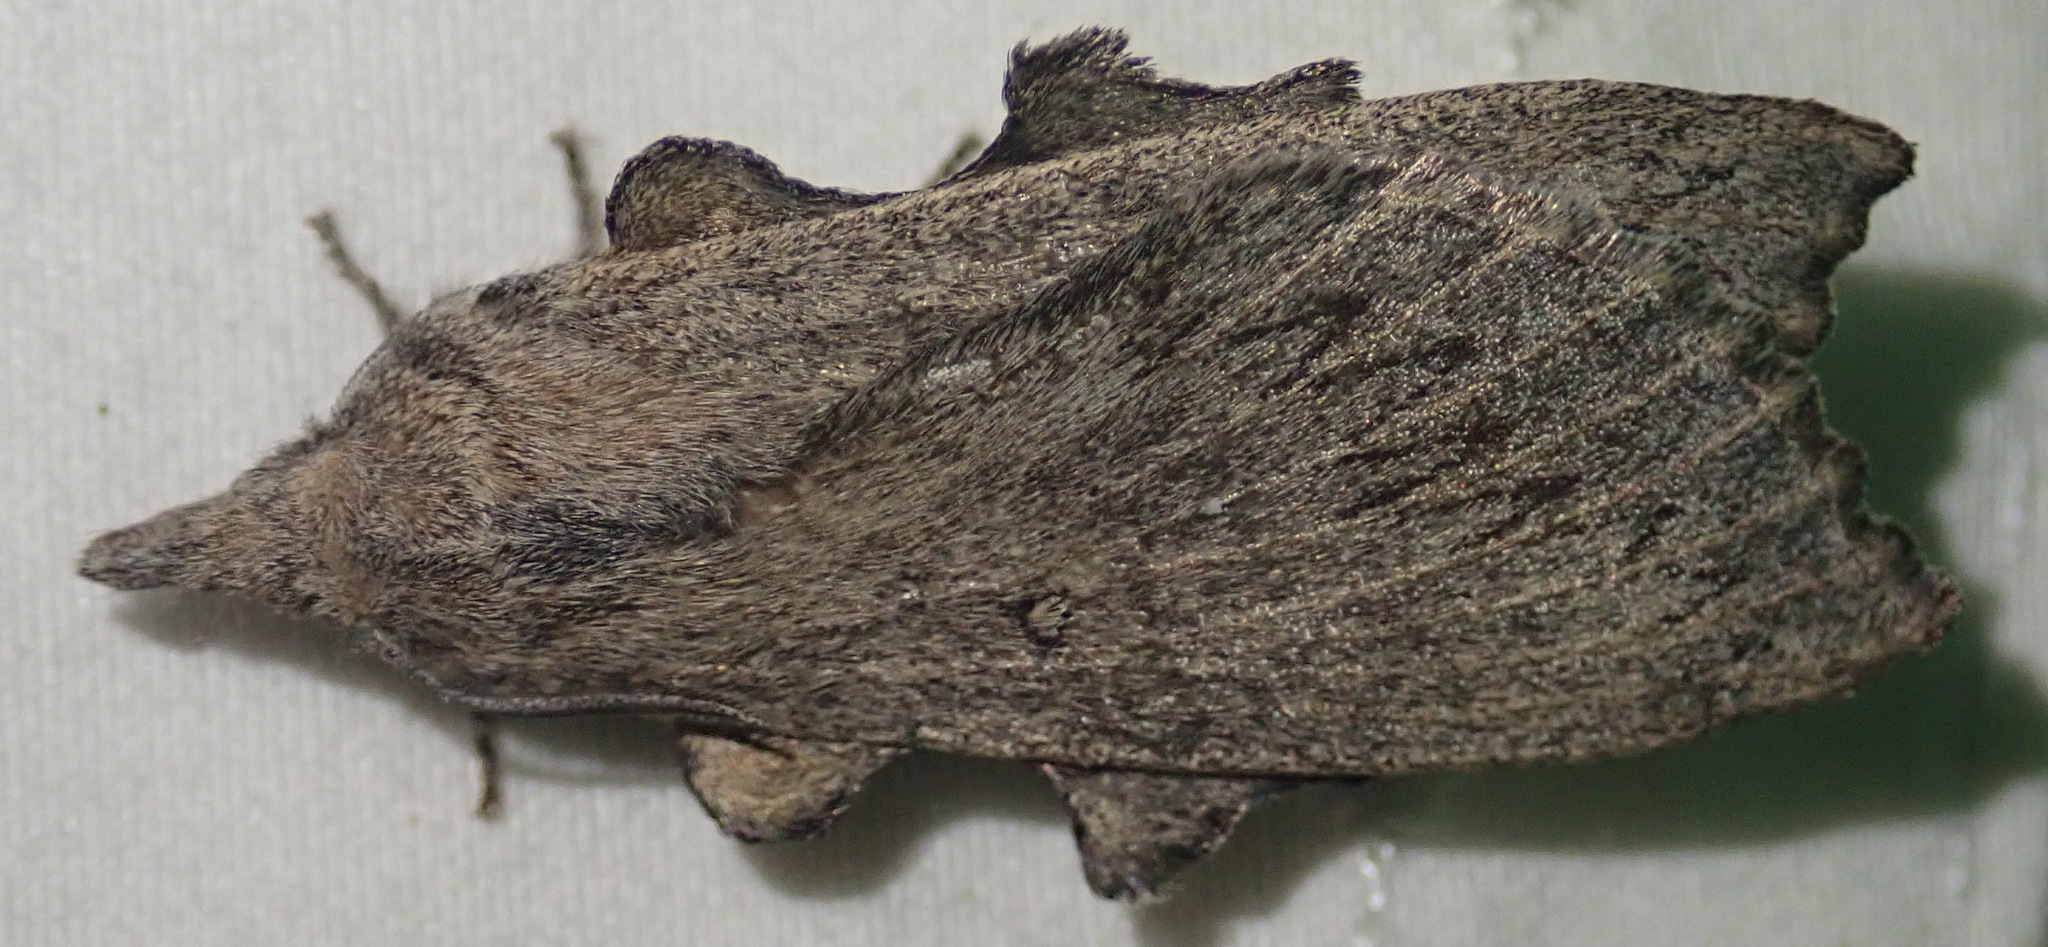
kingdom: Animalia
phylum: Arthropoda
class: Insecta
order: Lepidoptera
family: Lasiocampidae
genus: Rhinobombyx
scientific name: Rhinobombyx cuneata
